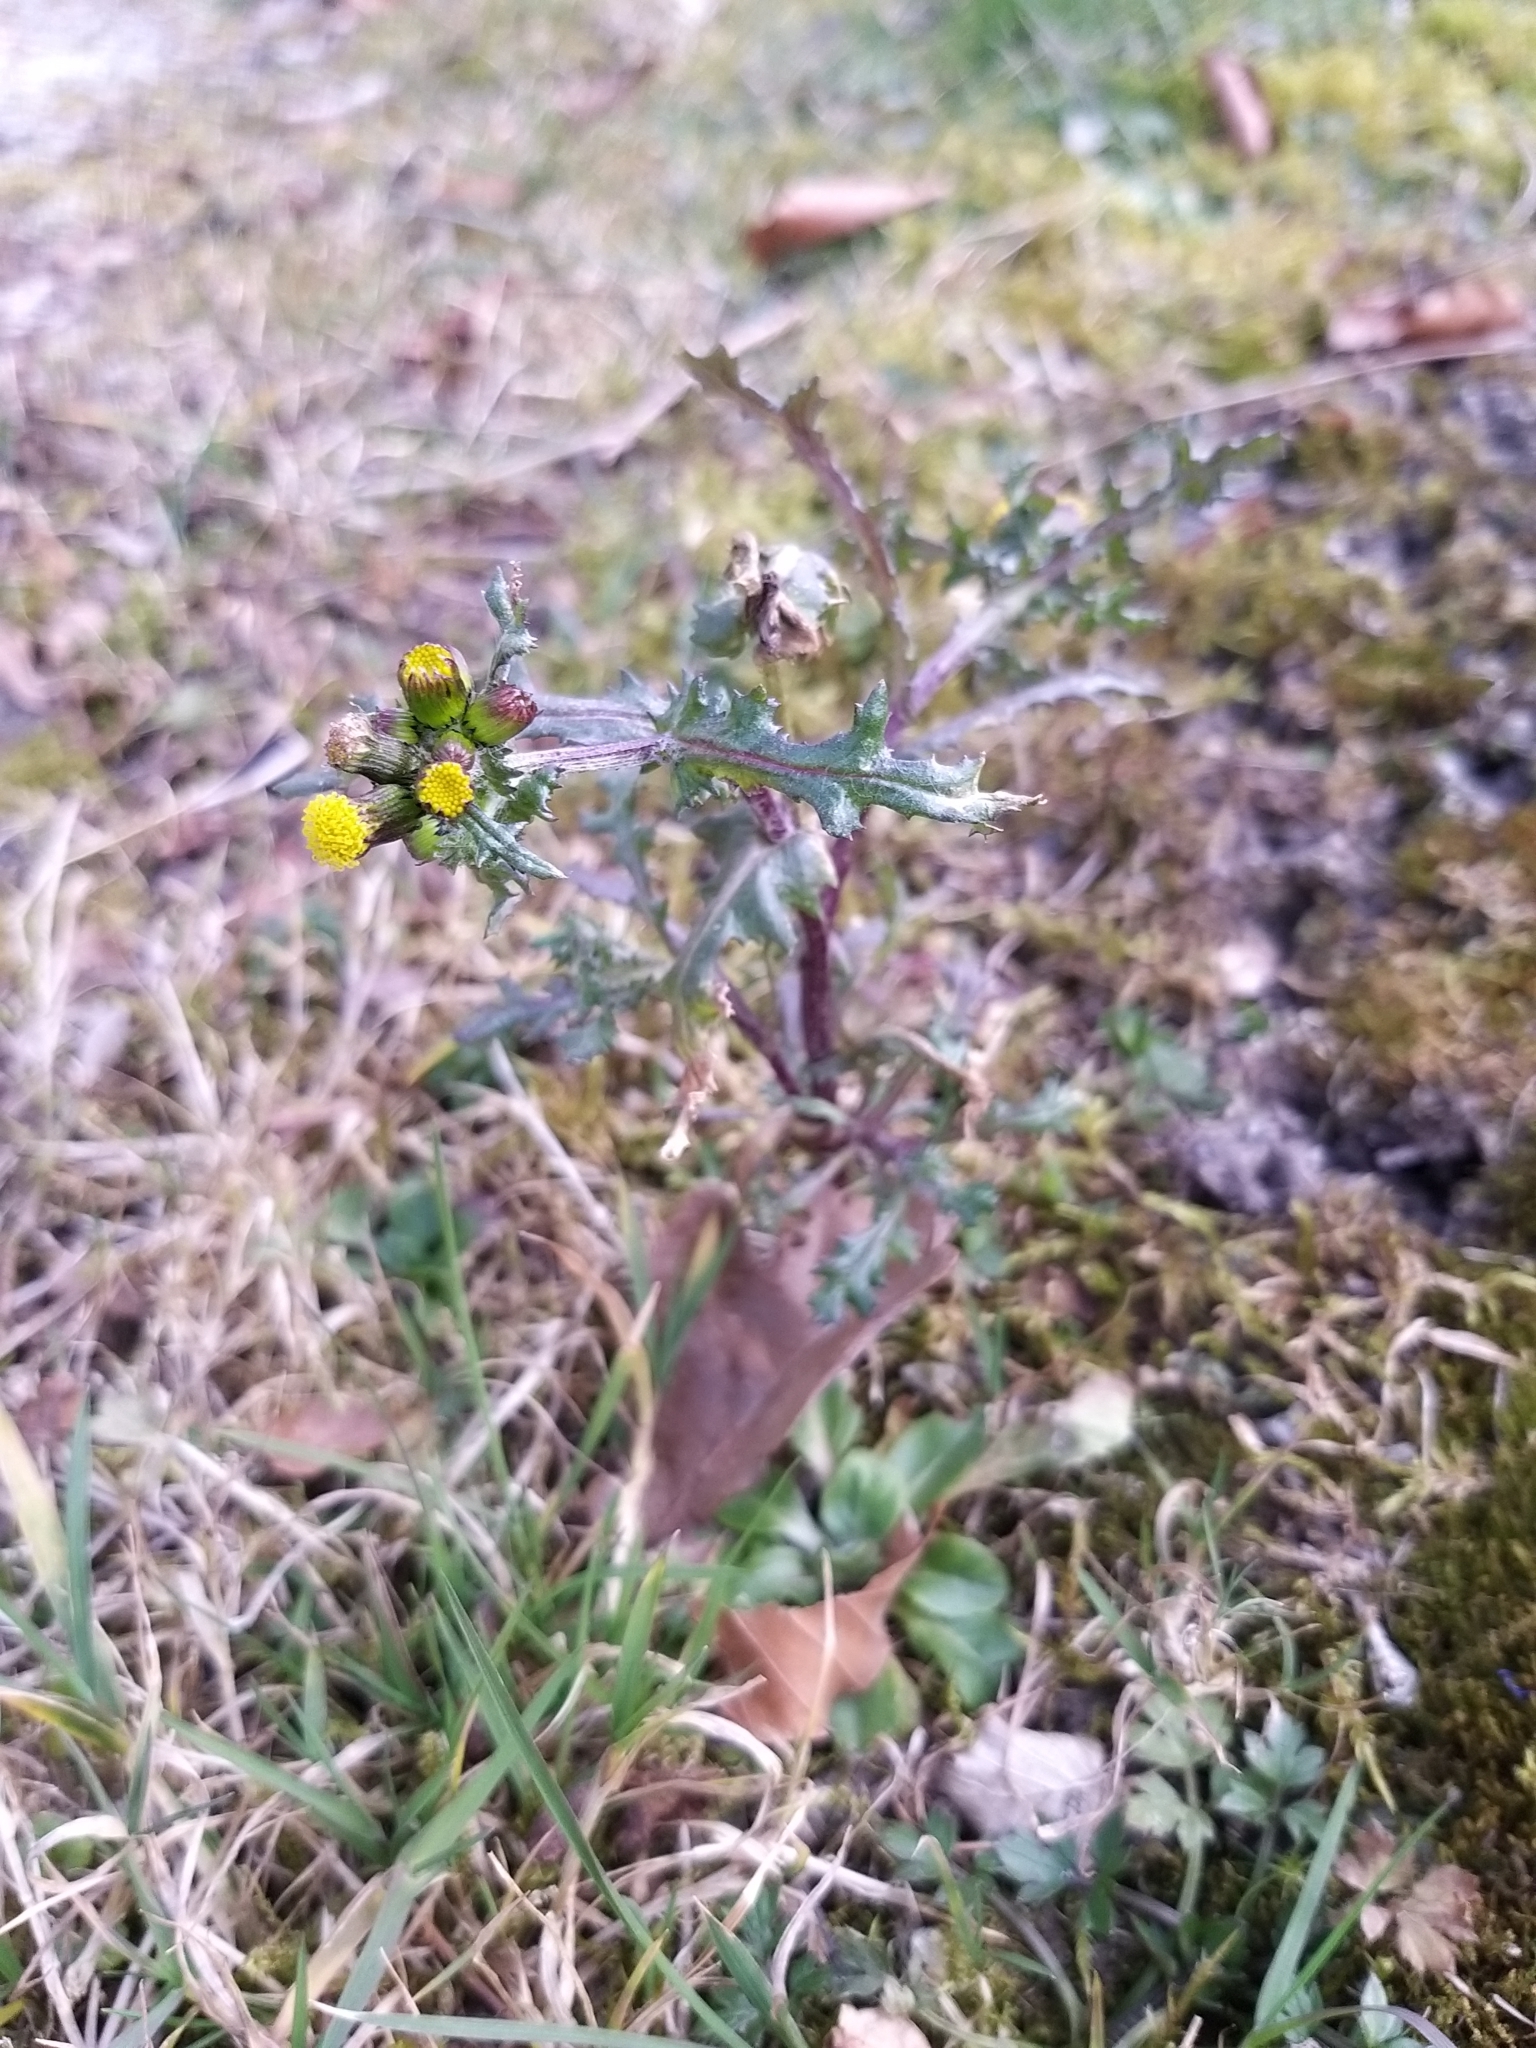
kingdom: Plantae
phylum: Tracheophyta
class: Magnoliopsida
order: Asterales
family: Asteraceae
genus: Senecio
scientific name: Senecio vulgaris
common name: Old-man-in-the-spring
